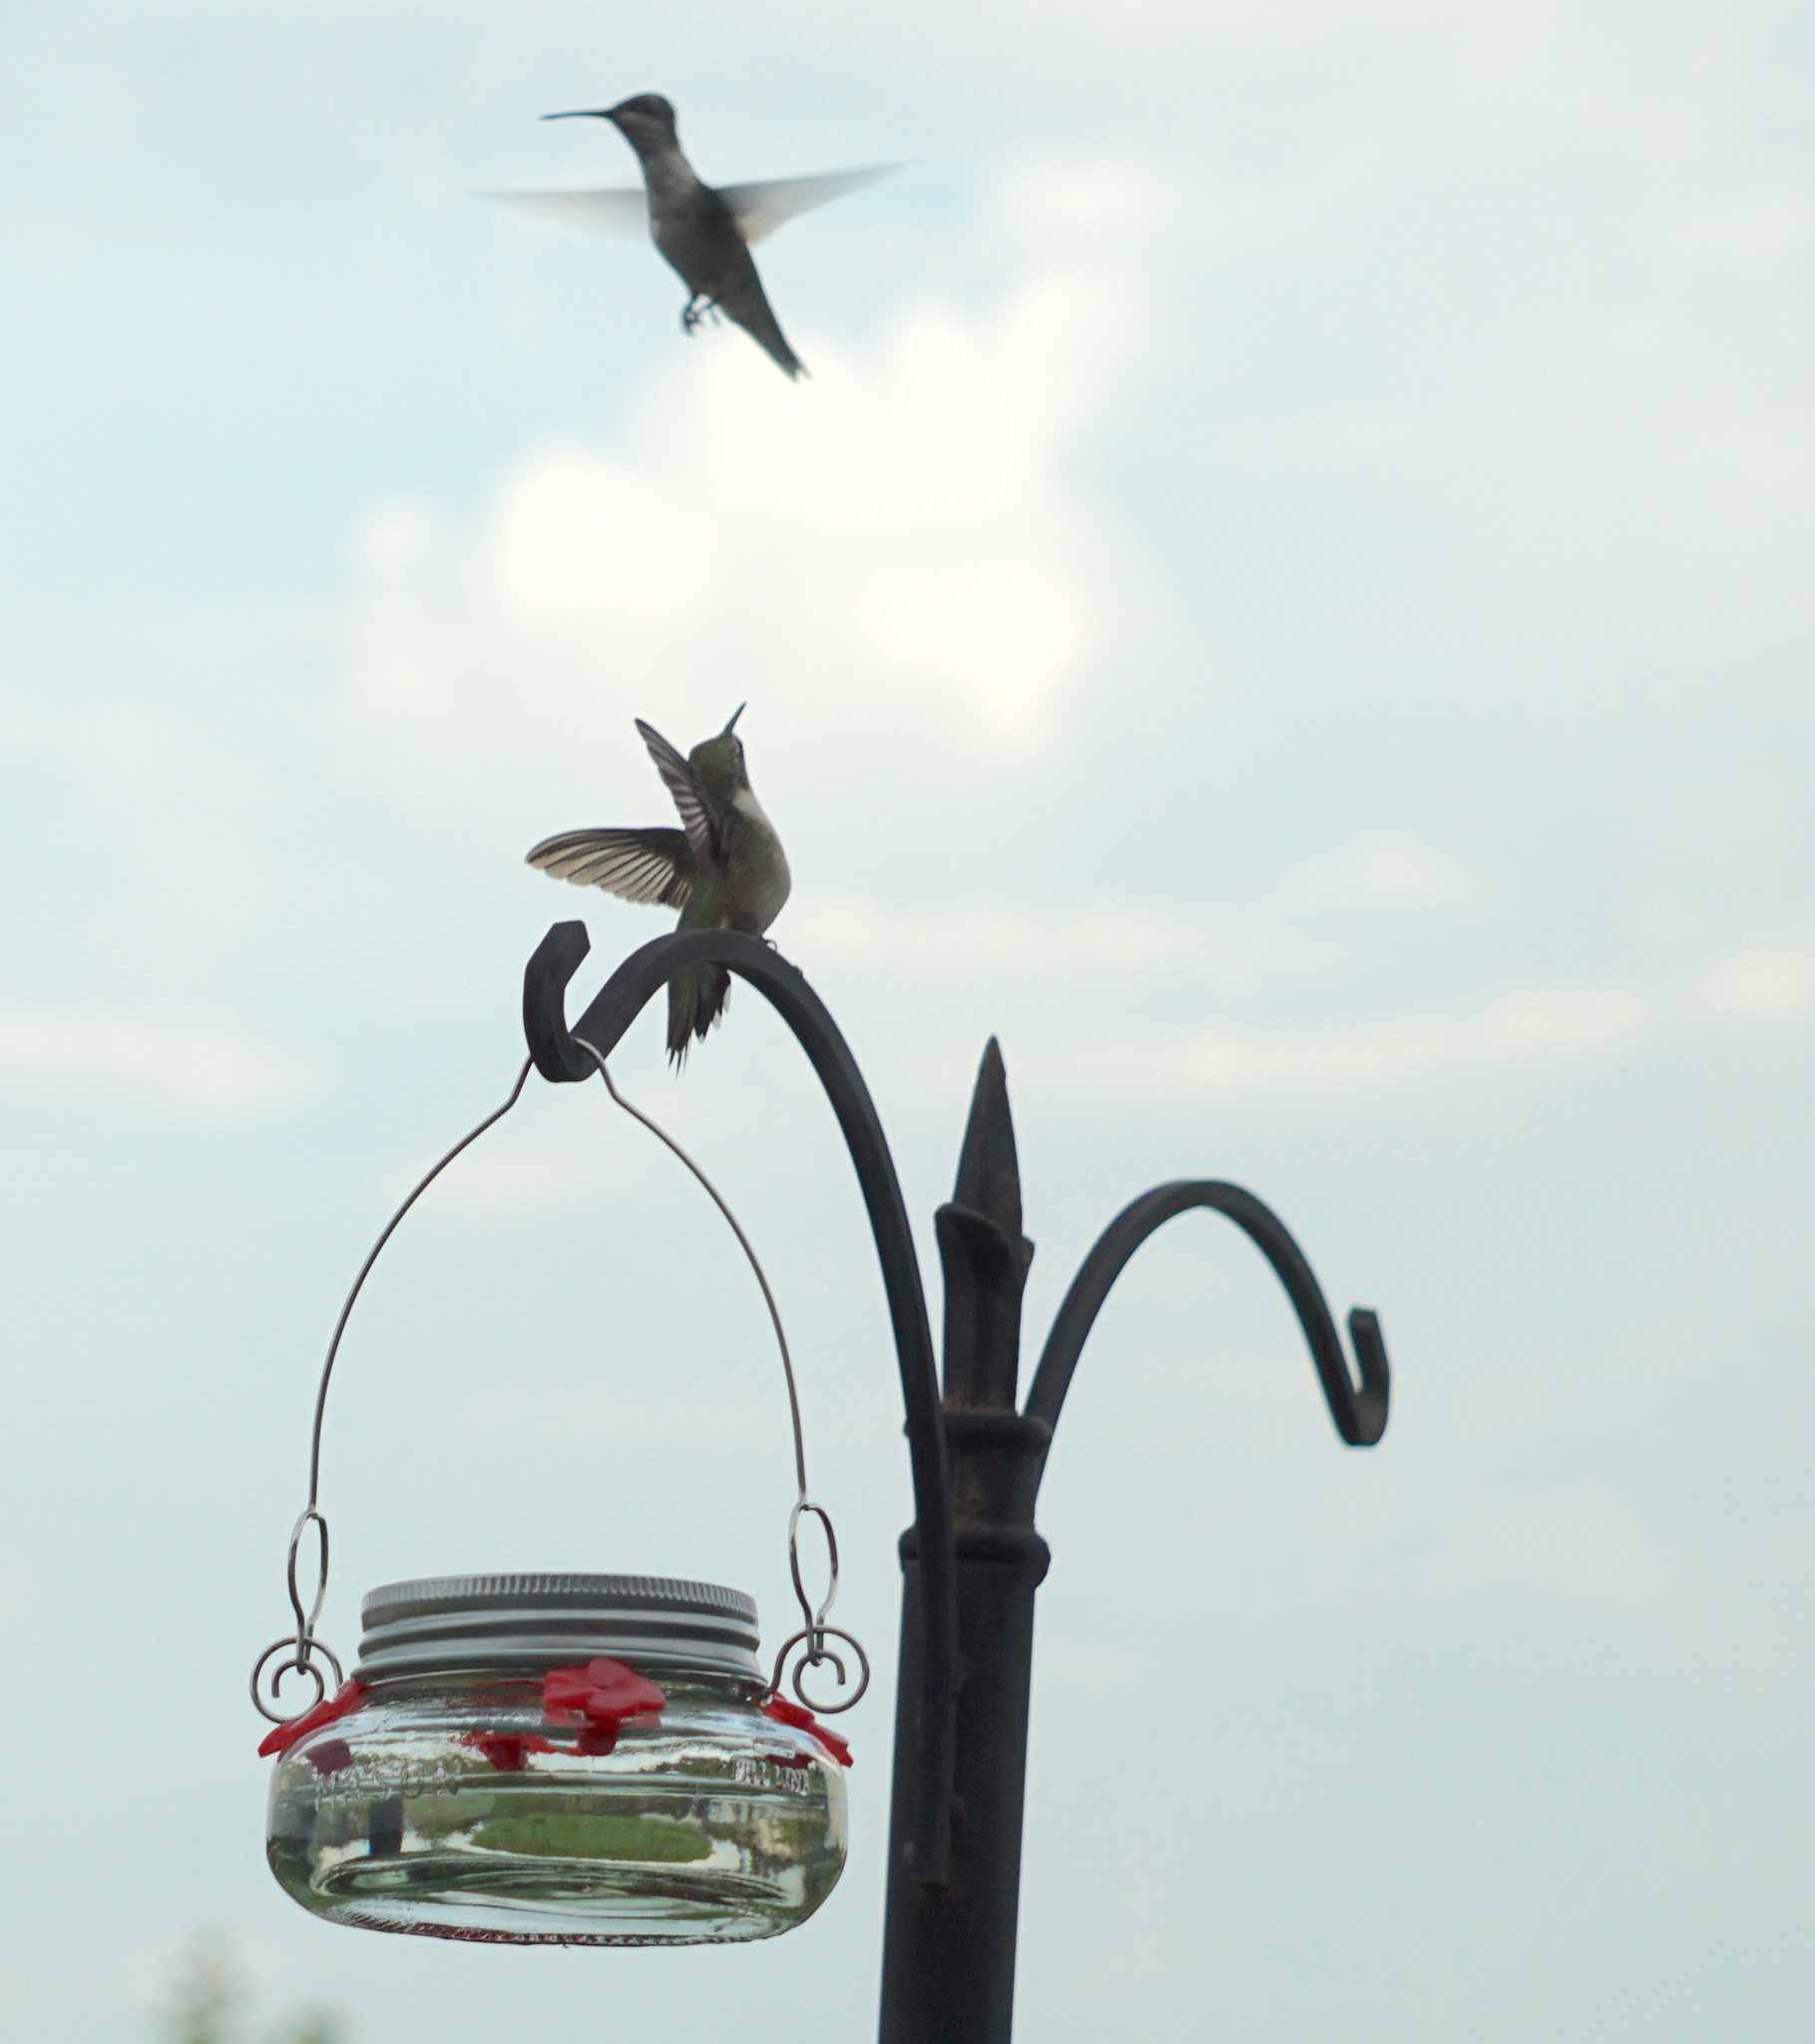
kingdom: Animalia
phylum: Chordata
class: Aves
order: Apodiformes
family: Trochilidae
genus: Archilochus
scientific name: Archilochus colubris
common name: Ruby-throated hummingbird
